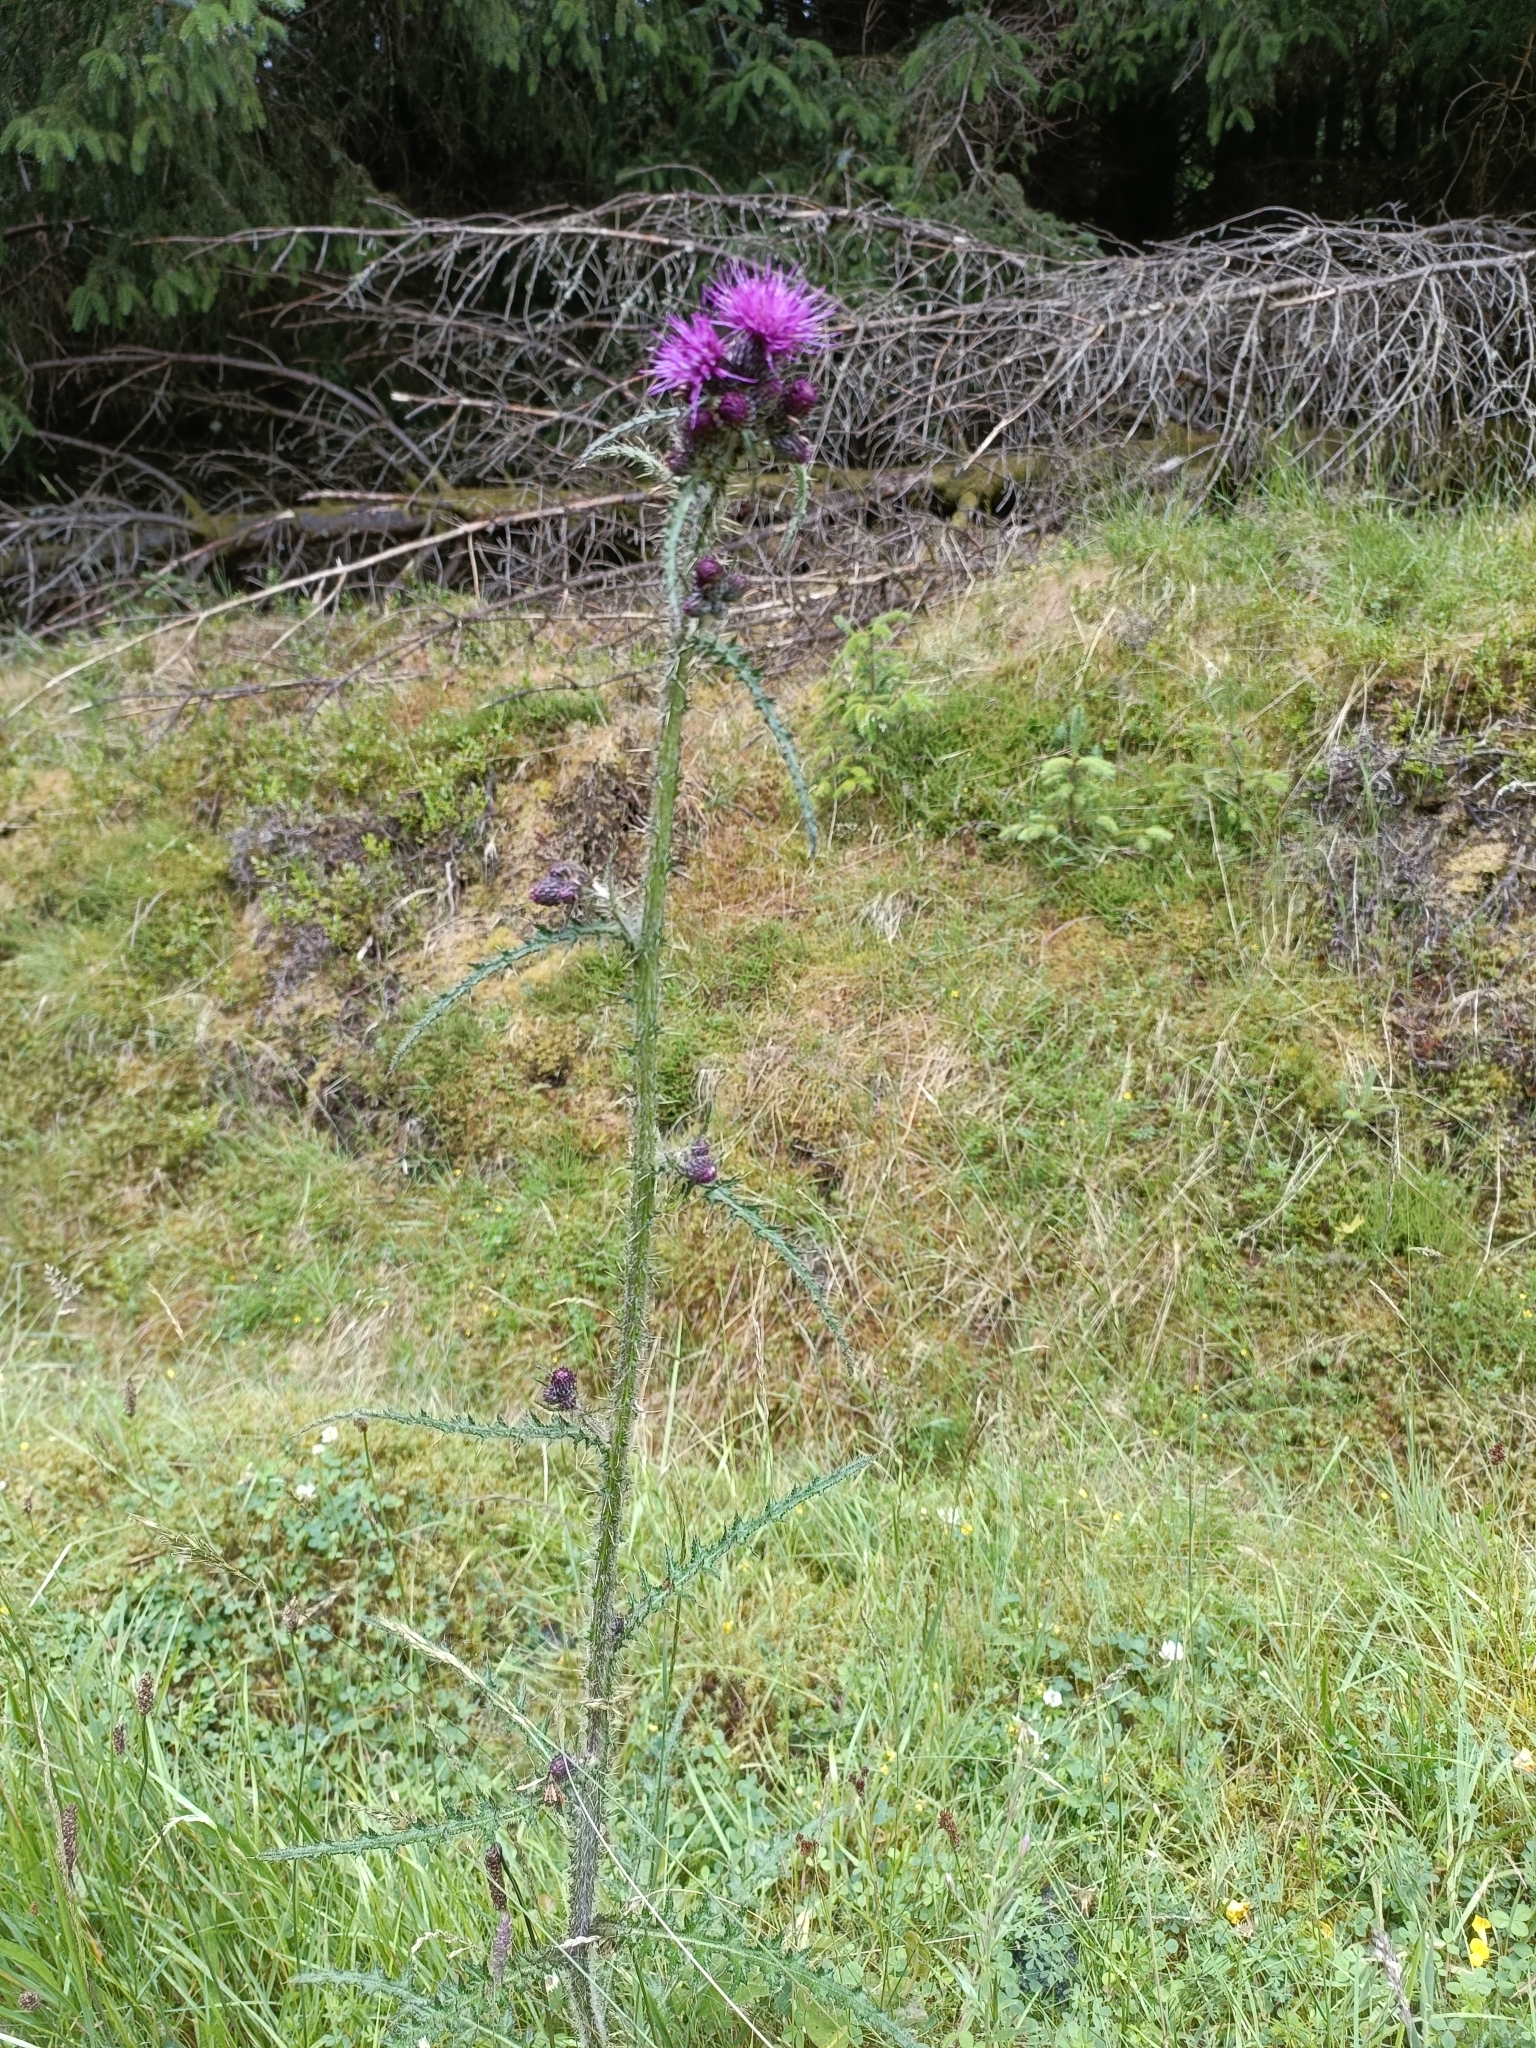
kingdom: Plantae
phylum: Tracheophyta
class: Magnoliopsida
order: Asterales
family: Asteraceae
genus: Cirsium
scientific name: Cirsium palustre
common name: Marsh thistle
